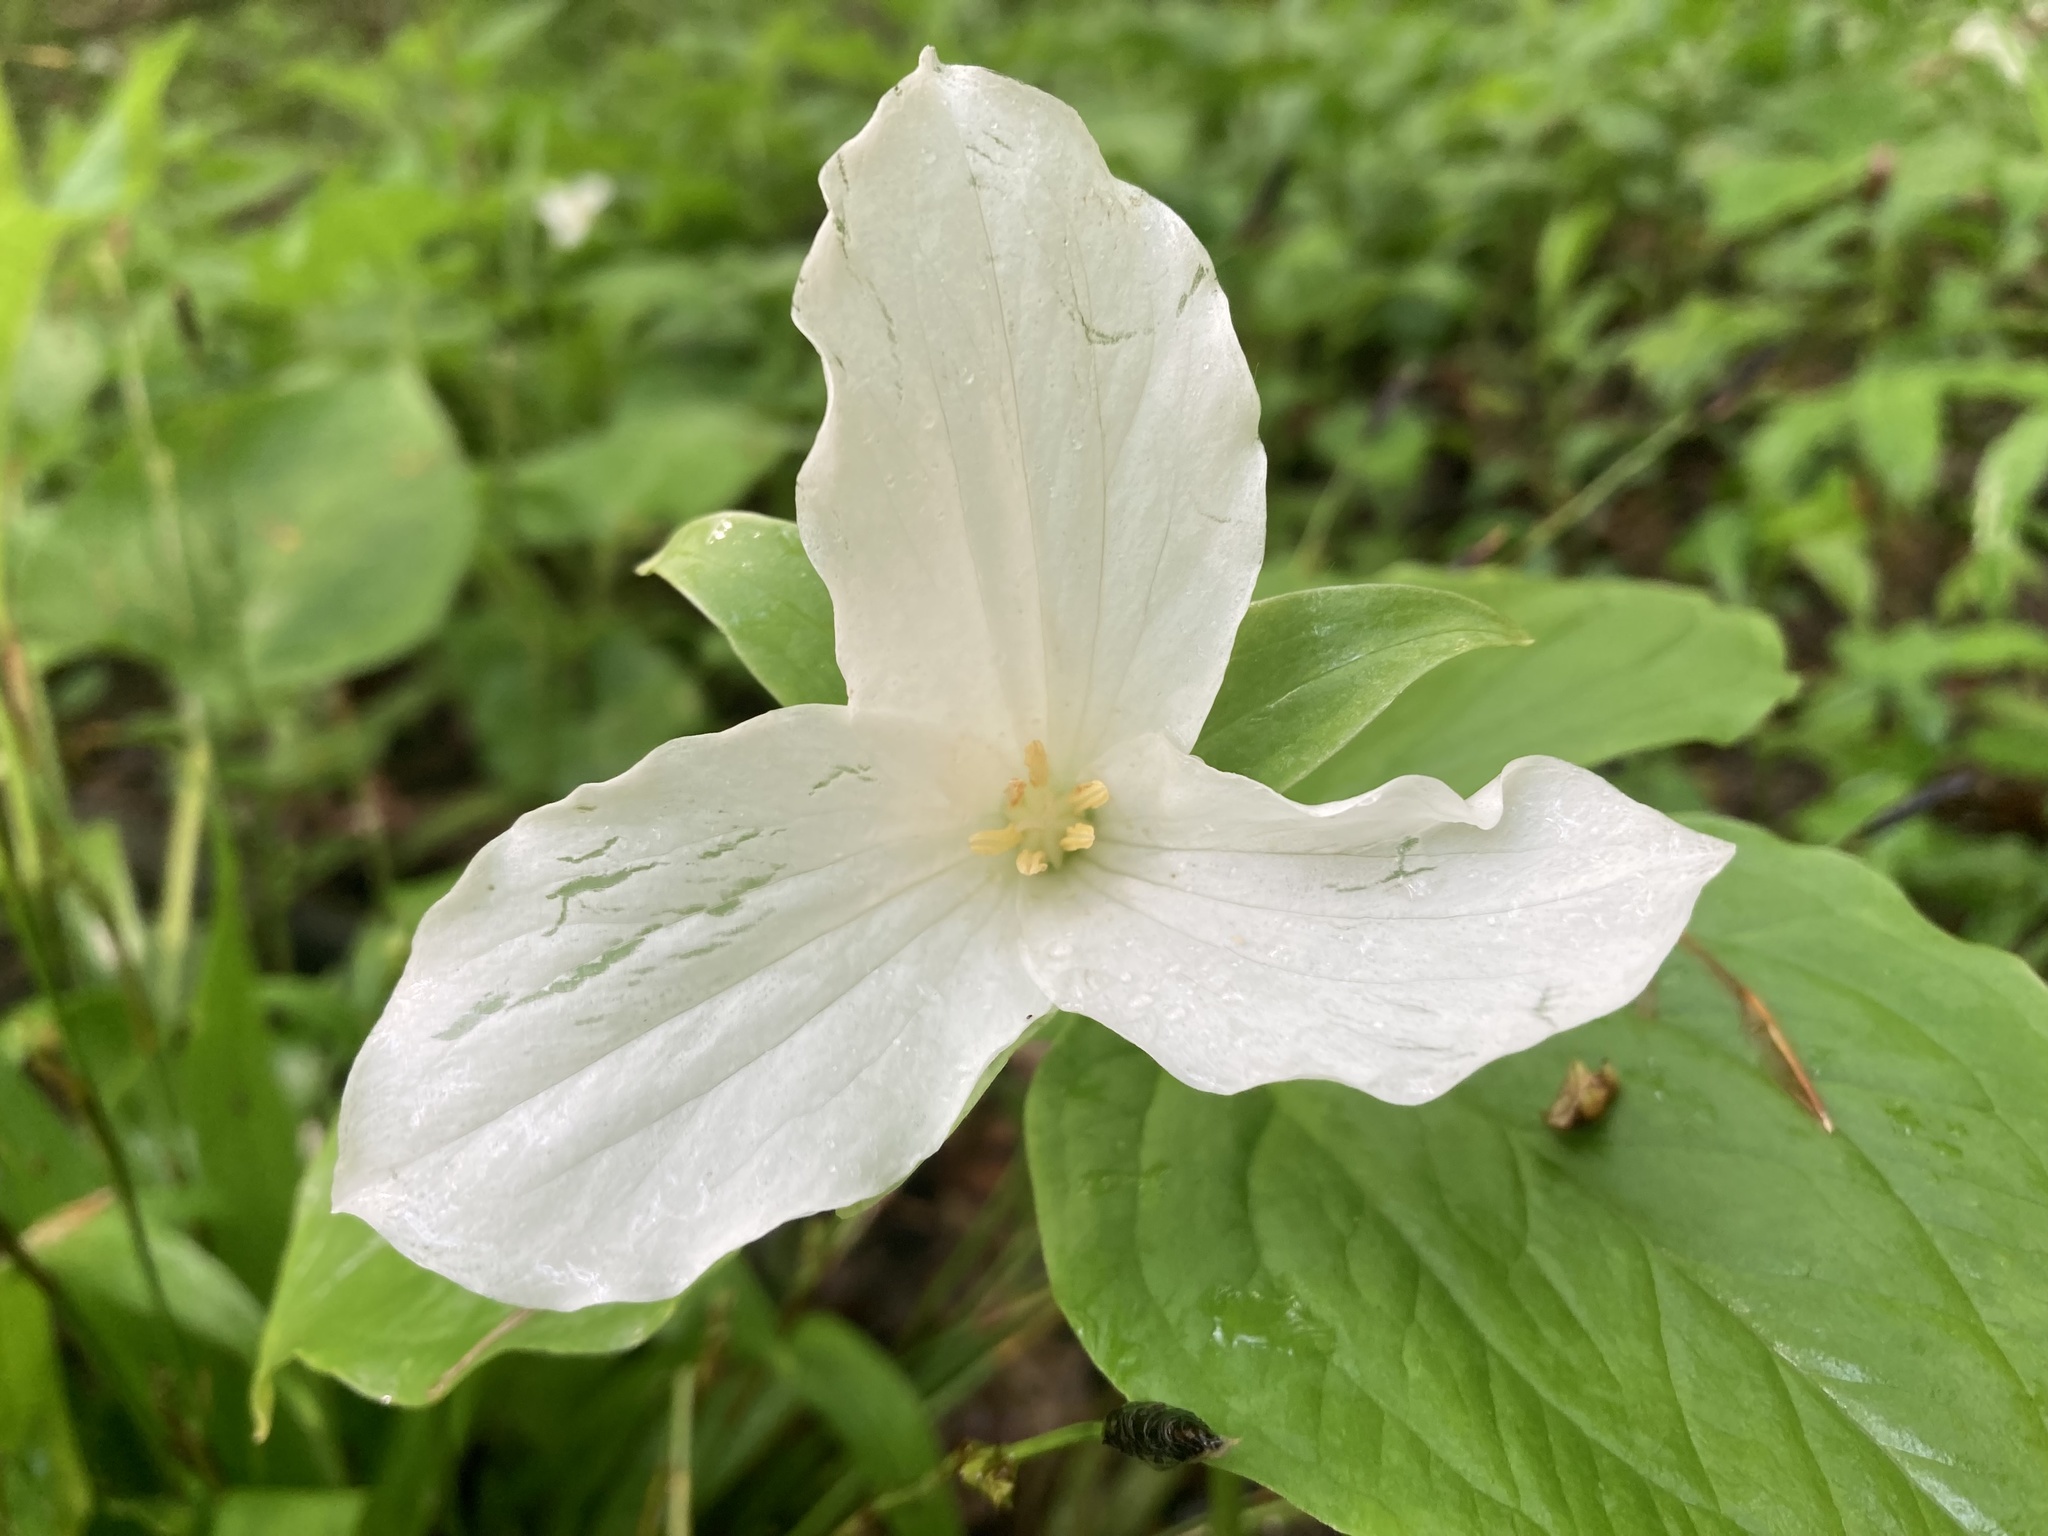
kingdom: Plantae
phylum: Tracheophyta
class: Liliopsida
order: Liliales
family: Melanthiaceae
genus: Trillium
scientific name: Trillium grandiflorum
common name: Great white trillium
